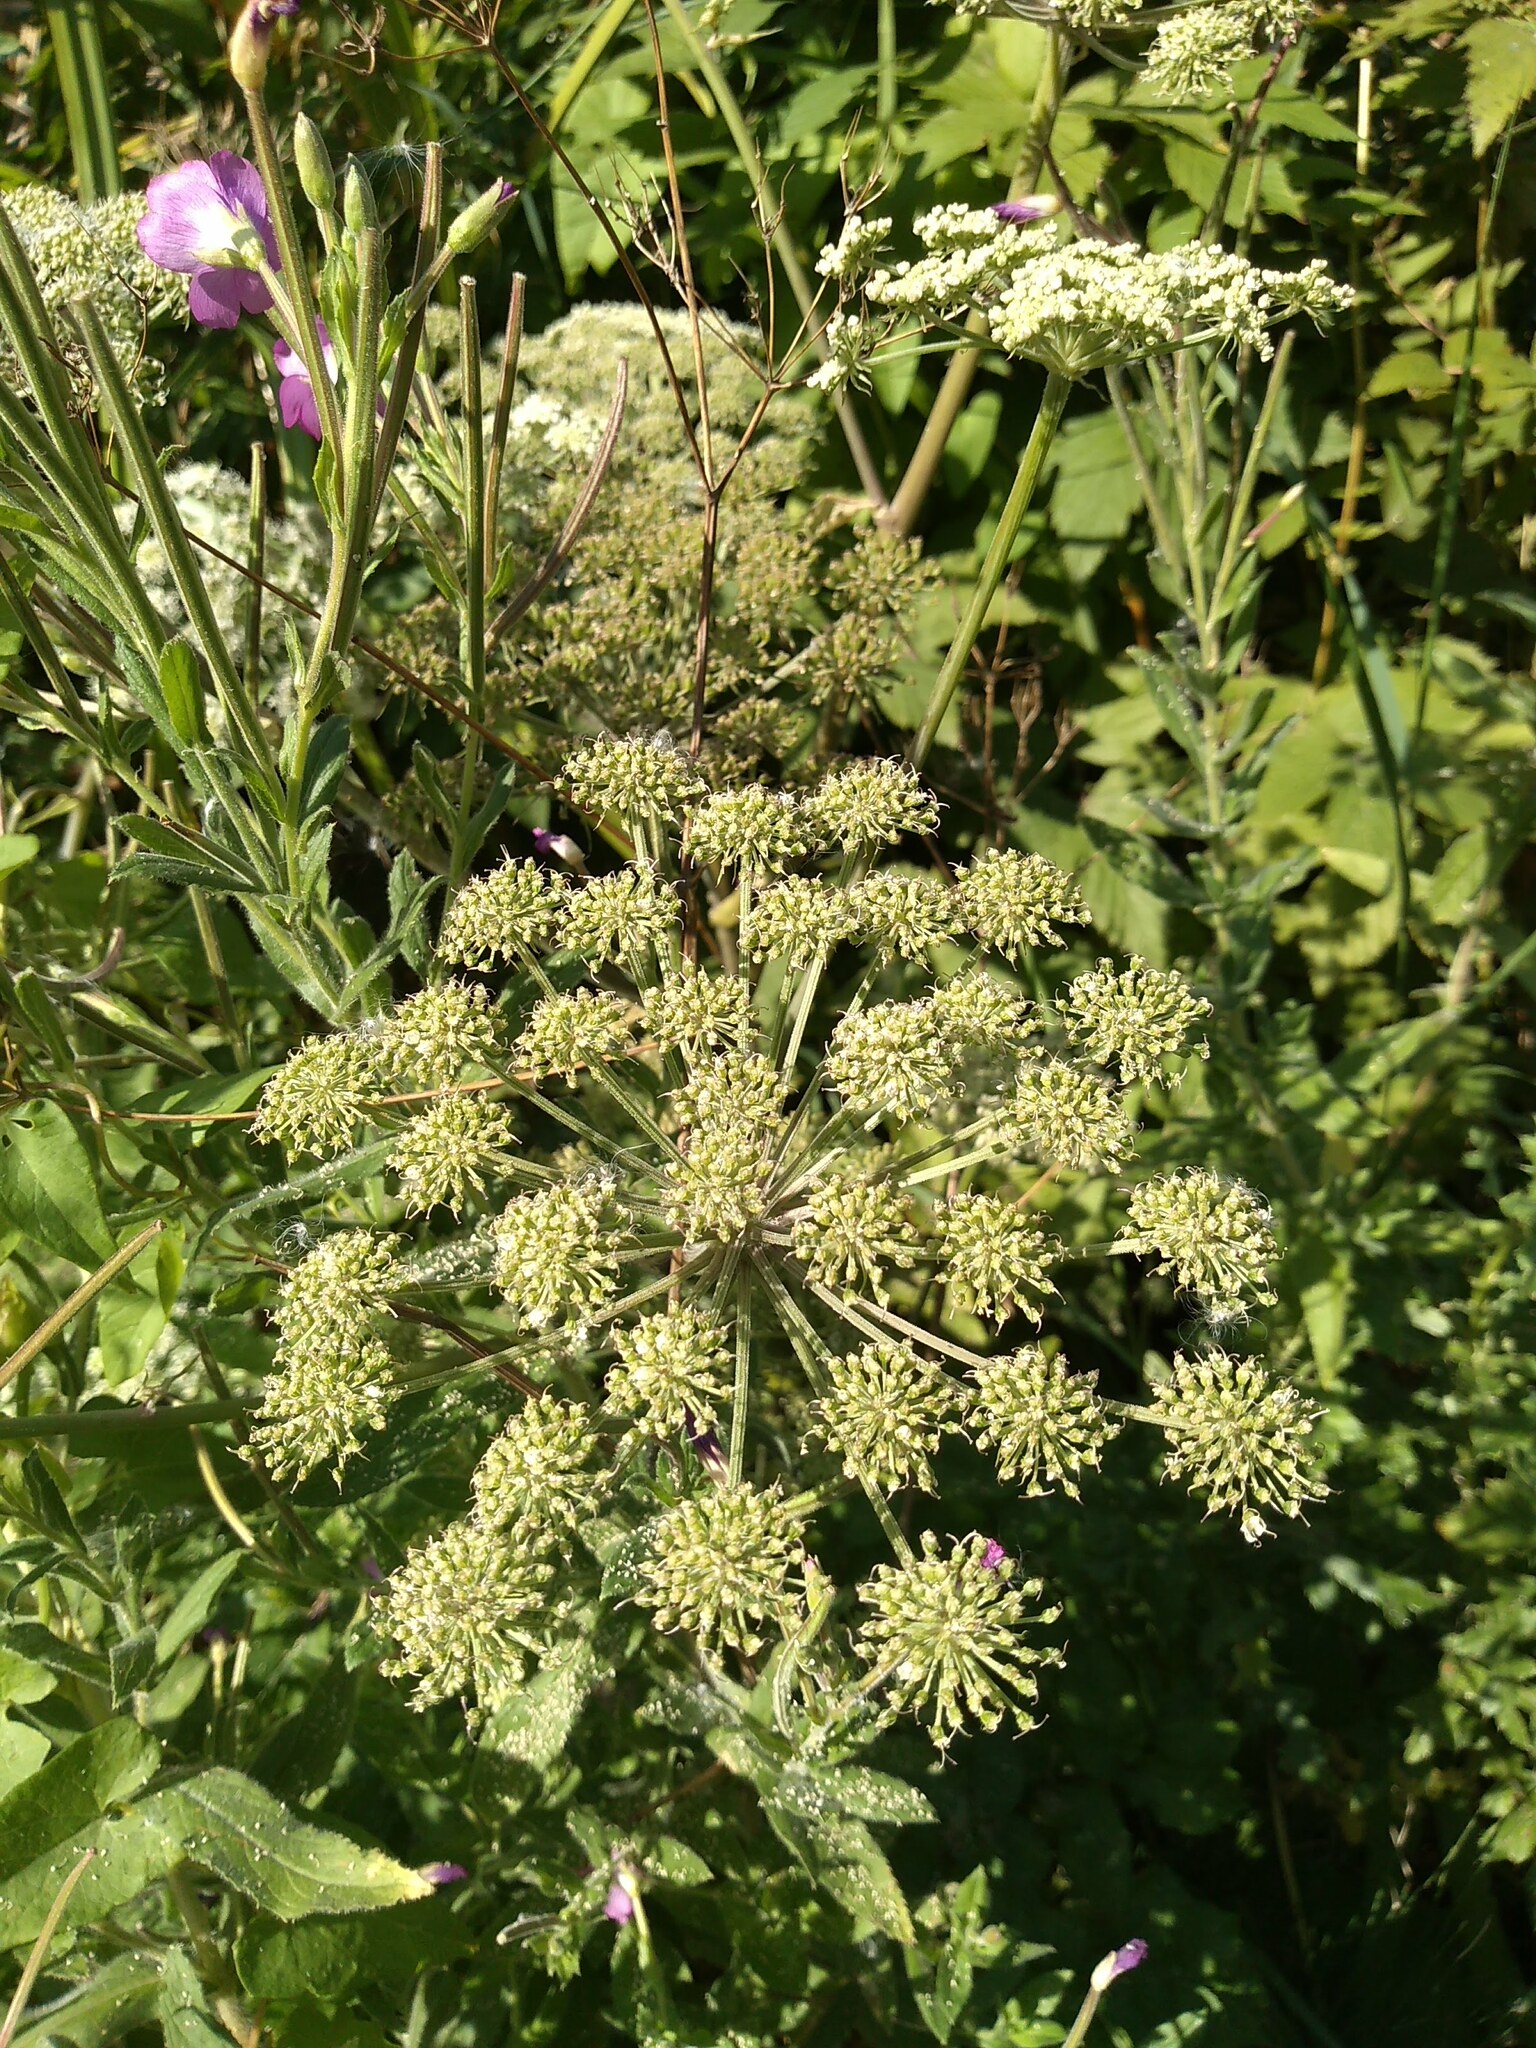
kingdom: Plantae
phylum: Tracheophyta
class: Magnoliopsida
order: Apiales
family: Apiaceae
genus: Angelica
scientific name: Angelica sylvestris
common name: Wild angelica
